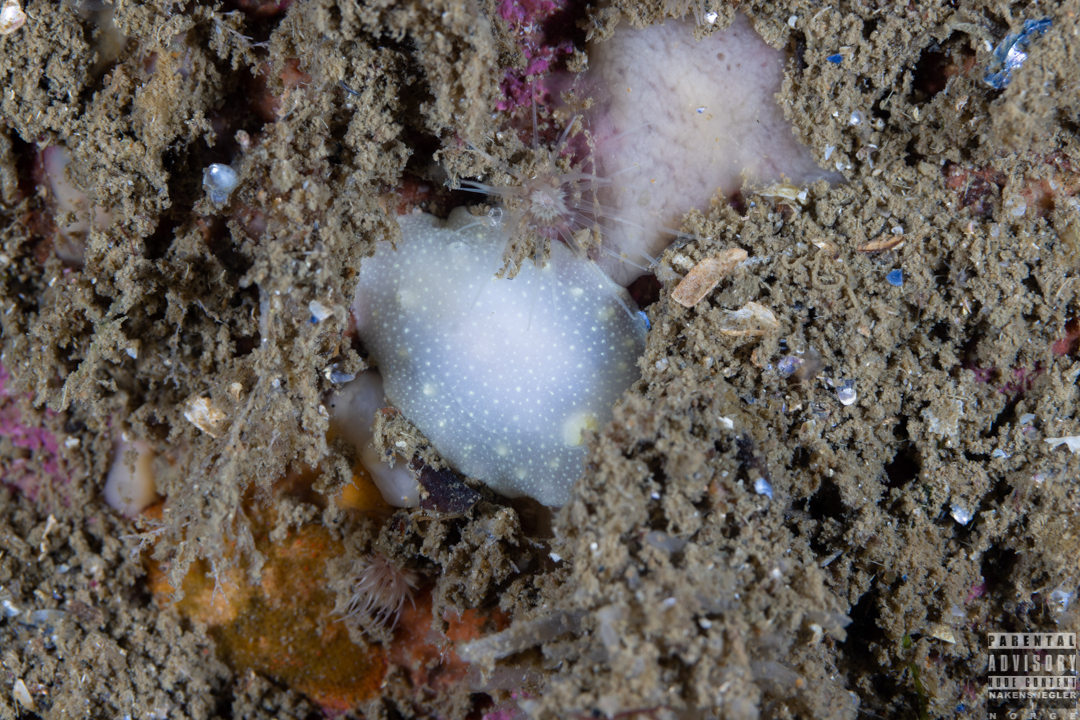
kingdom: Animalia
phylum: Mollusca
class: Gastropoda
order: Nudibranchia
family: Cadlinidae
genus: Cadlina
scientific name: Cadlina laevis
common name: White atlantic cadlina
